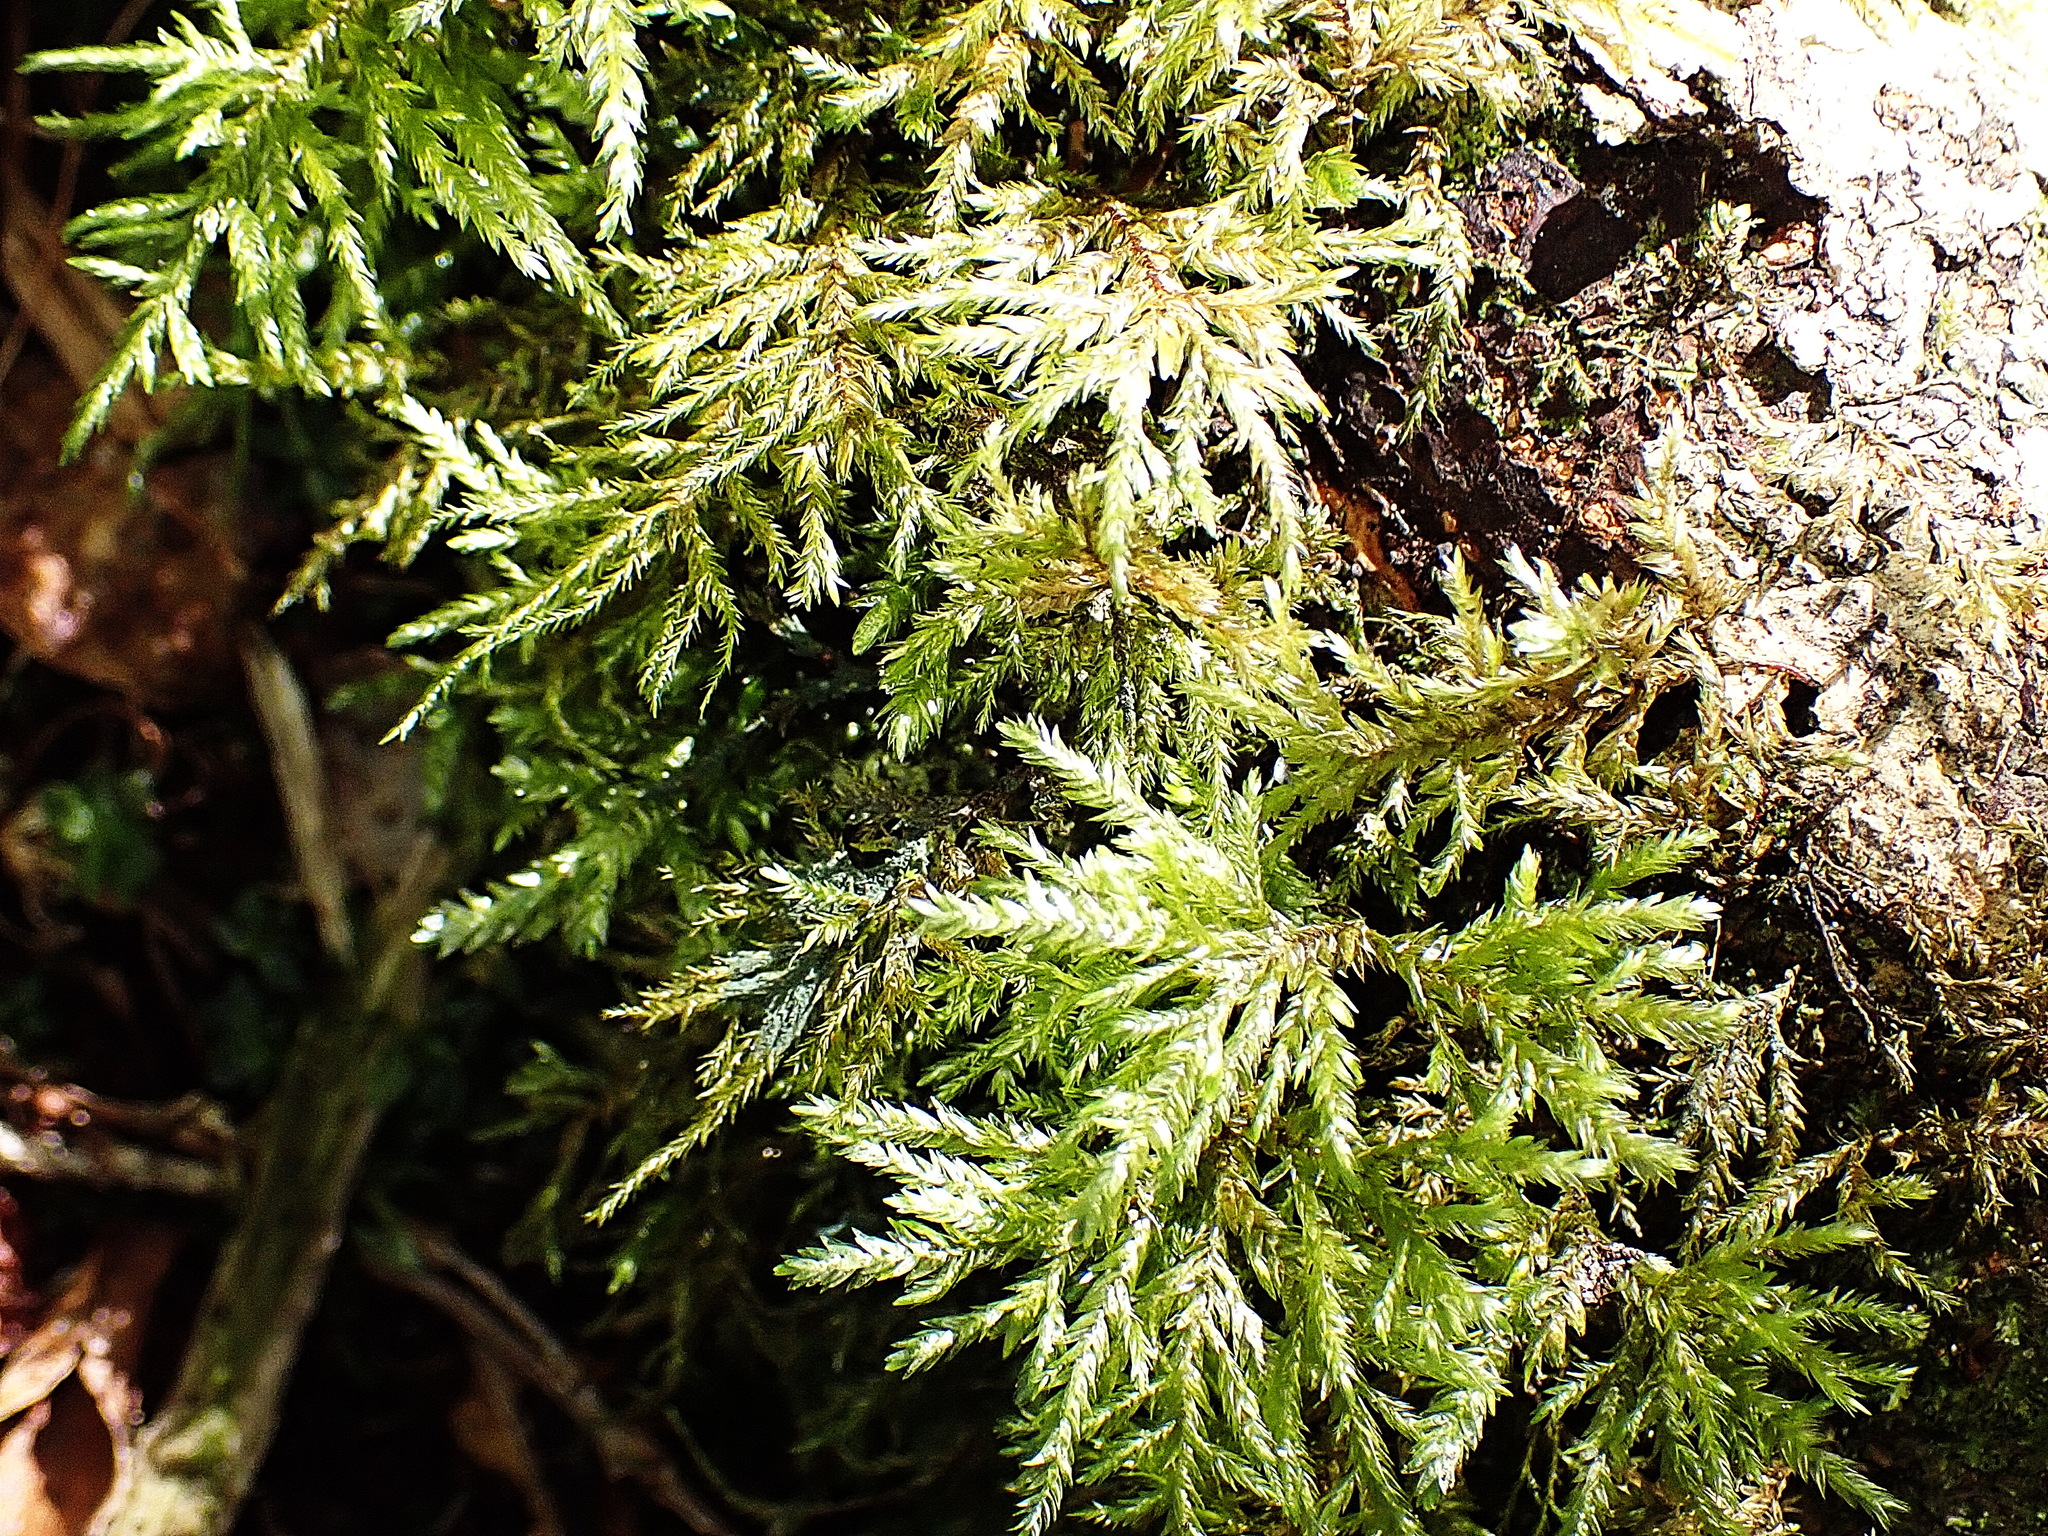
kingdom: Plantae
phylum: Bryophyta
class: Bryopsida
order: Hypnales
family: Neckeraceae
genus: Porotrichum
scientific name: Porotrichum madagassum
